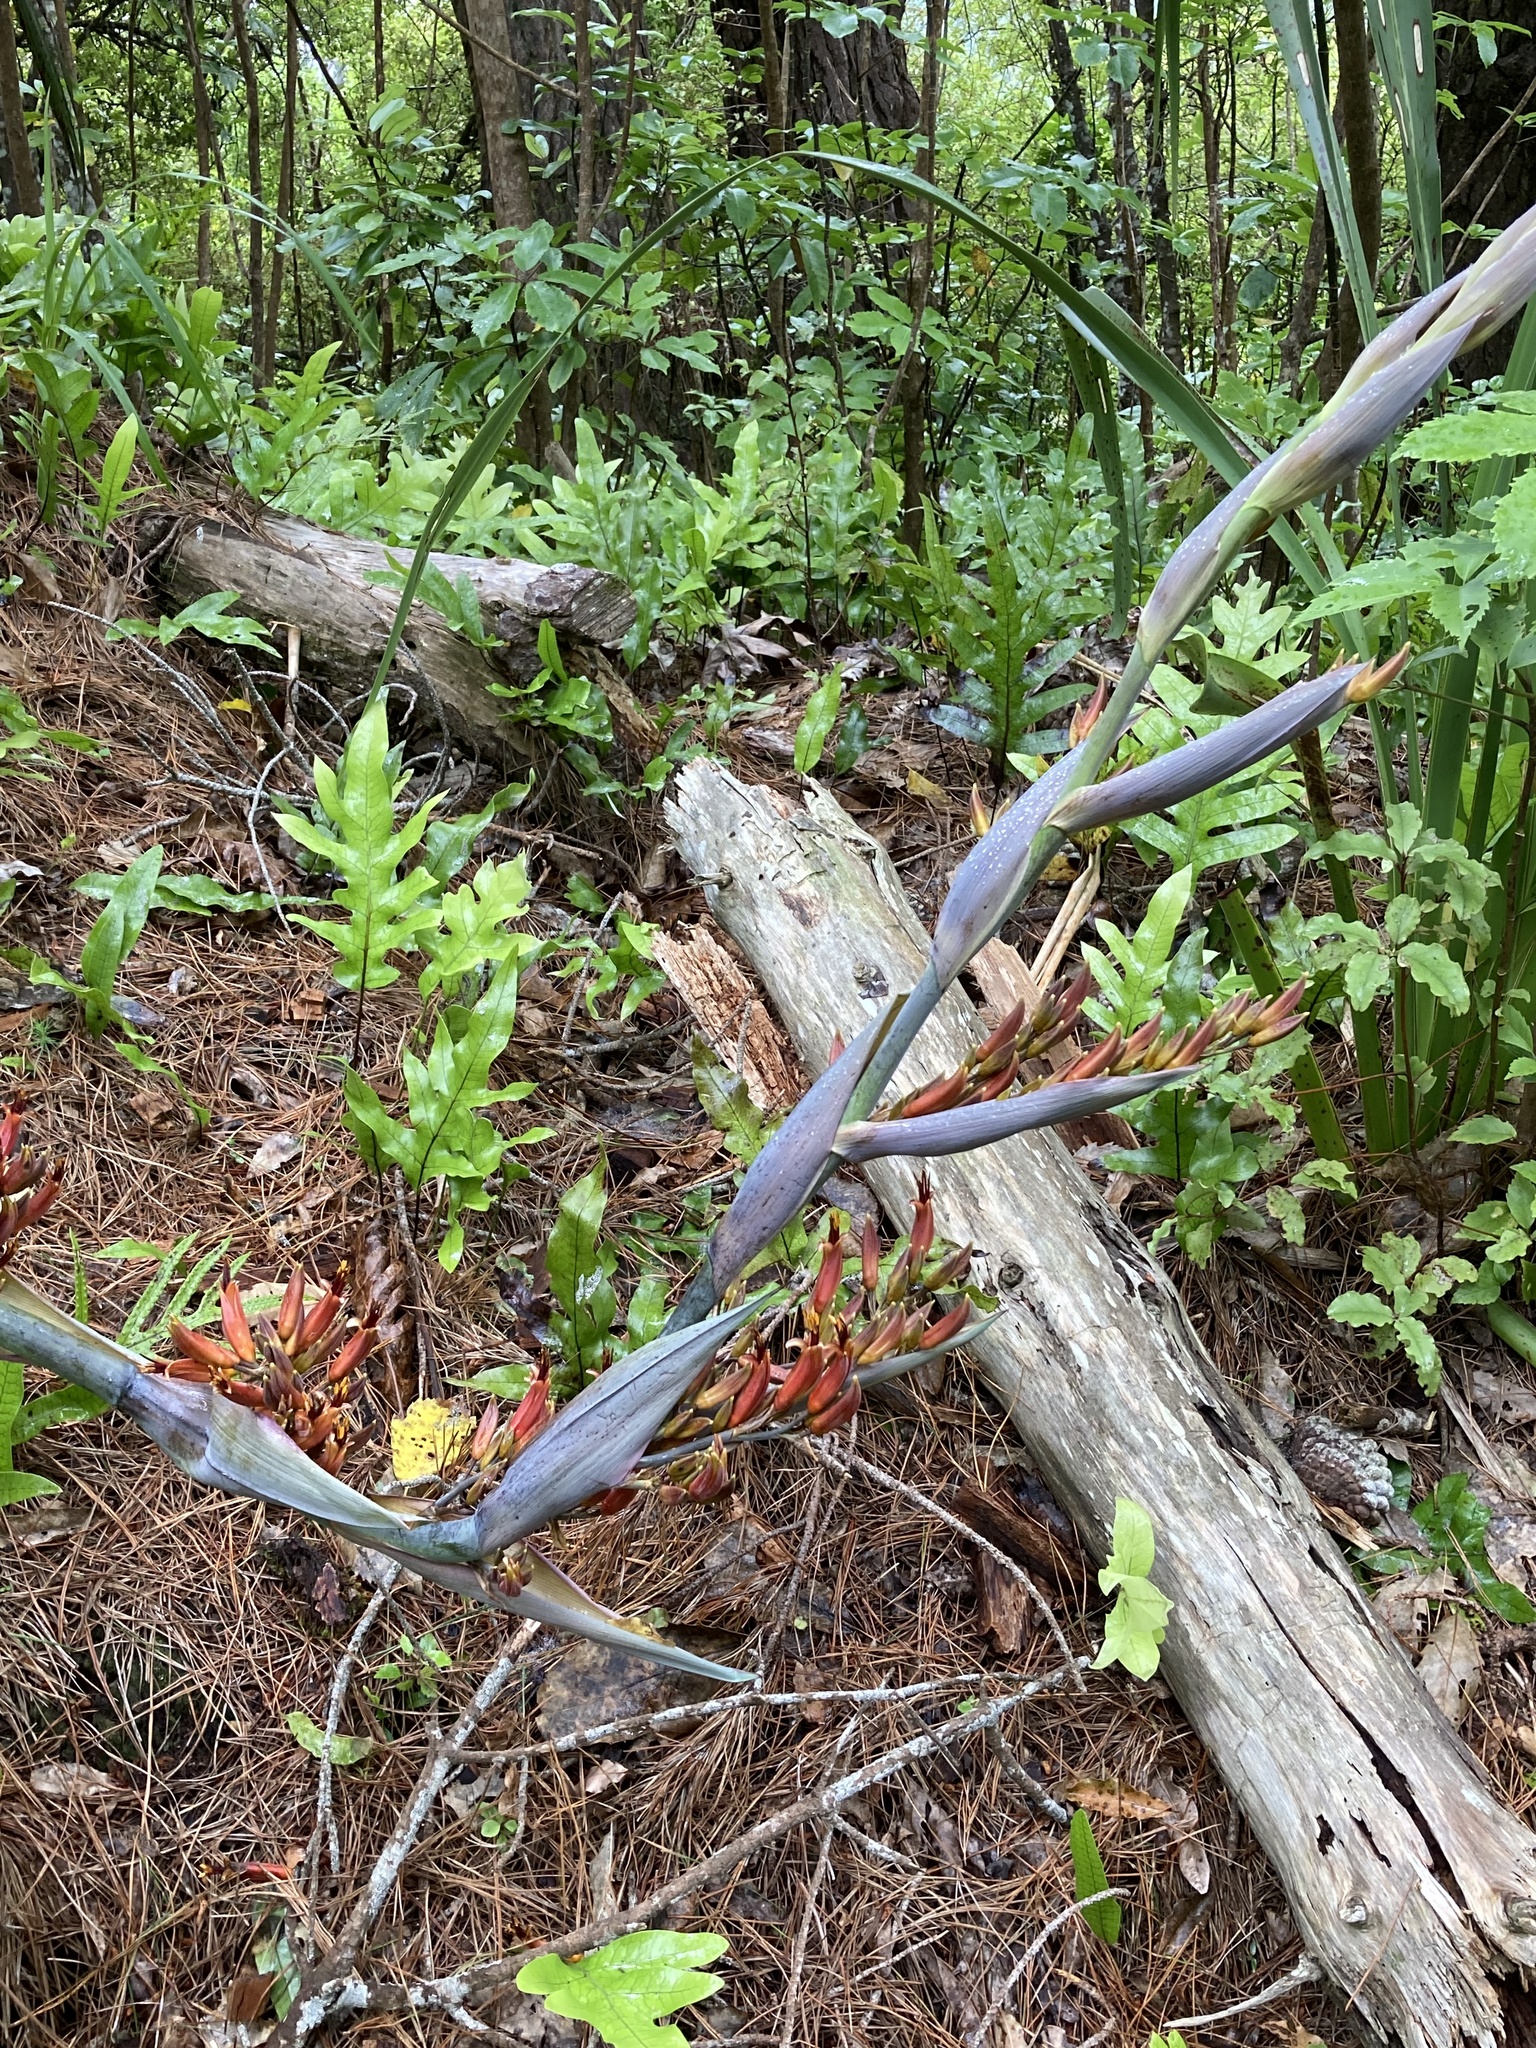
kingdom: Plantae
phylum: Tracheophyta
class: Liliopsida
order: Asparagales
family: Asphodelaceae
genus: Phormium
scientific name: Phormium tenax
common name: New zealand flax
